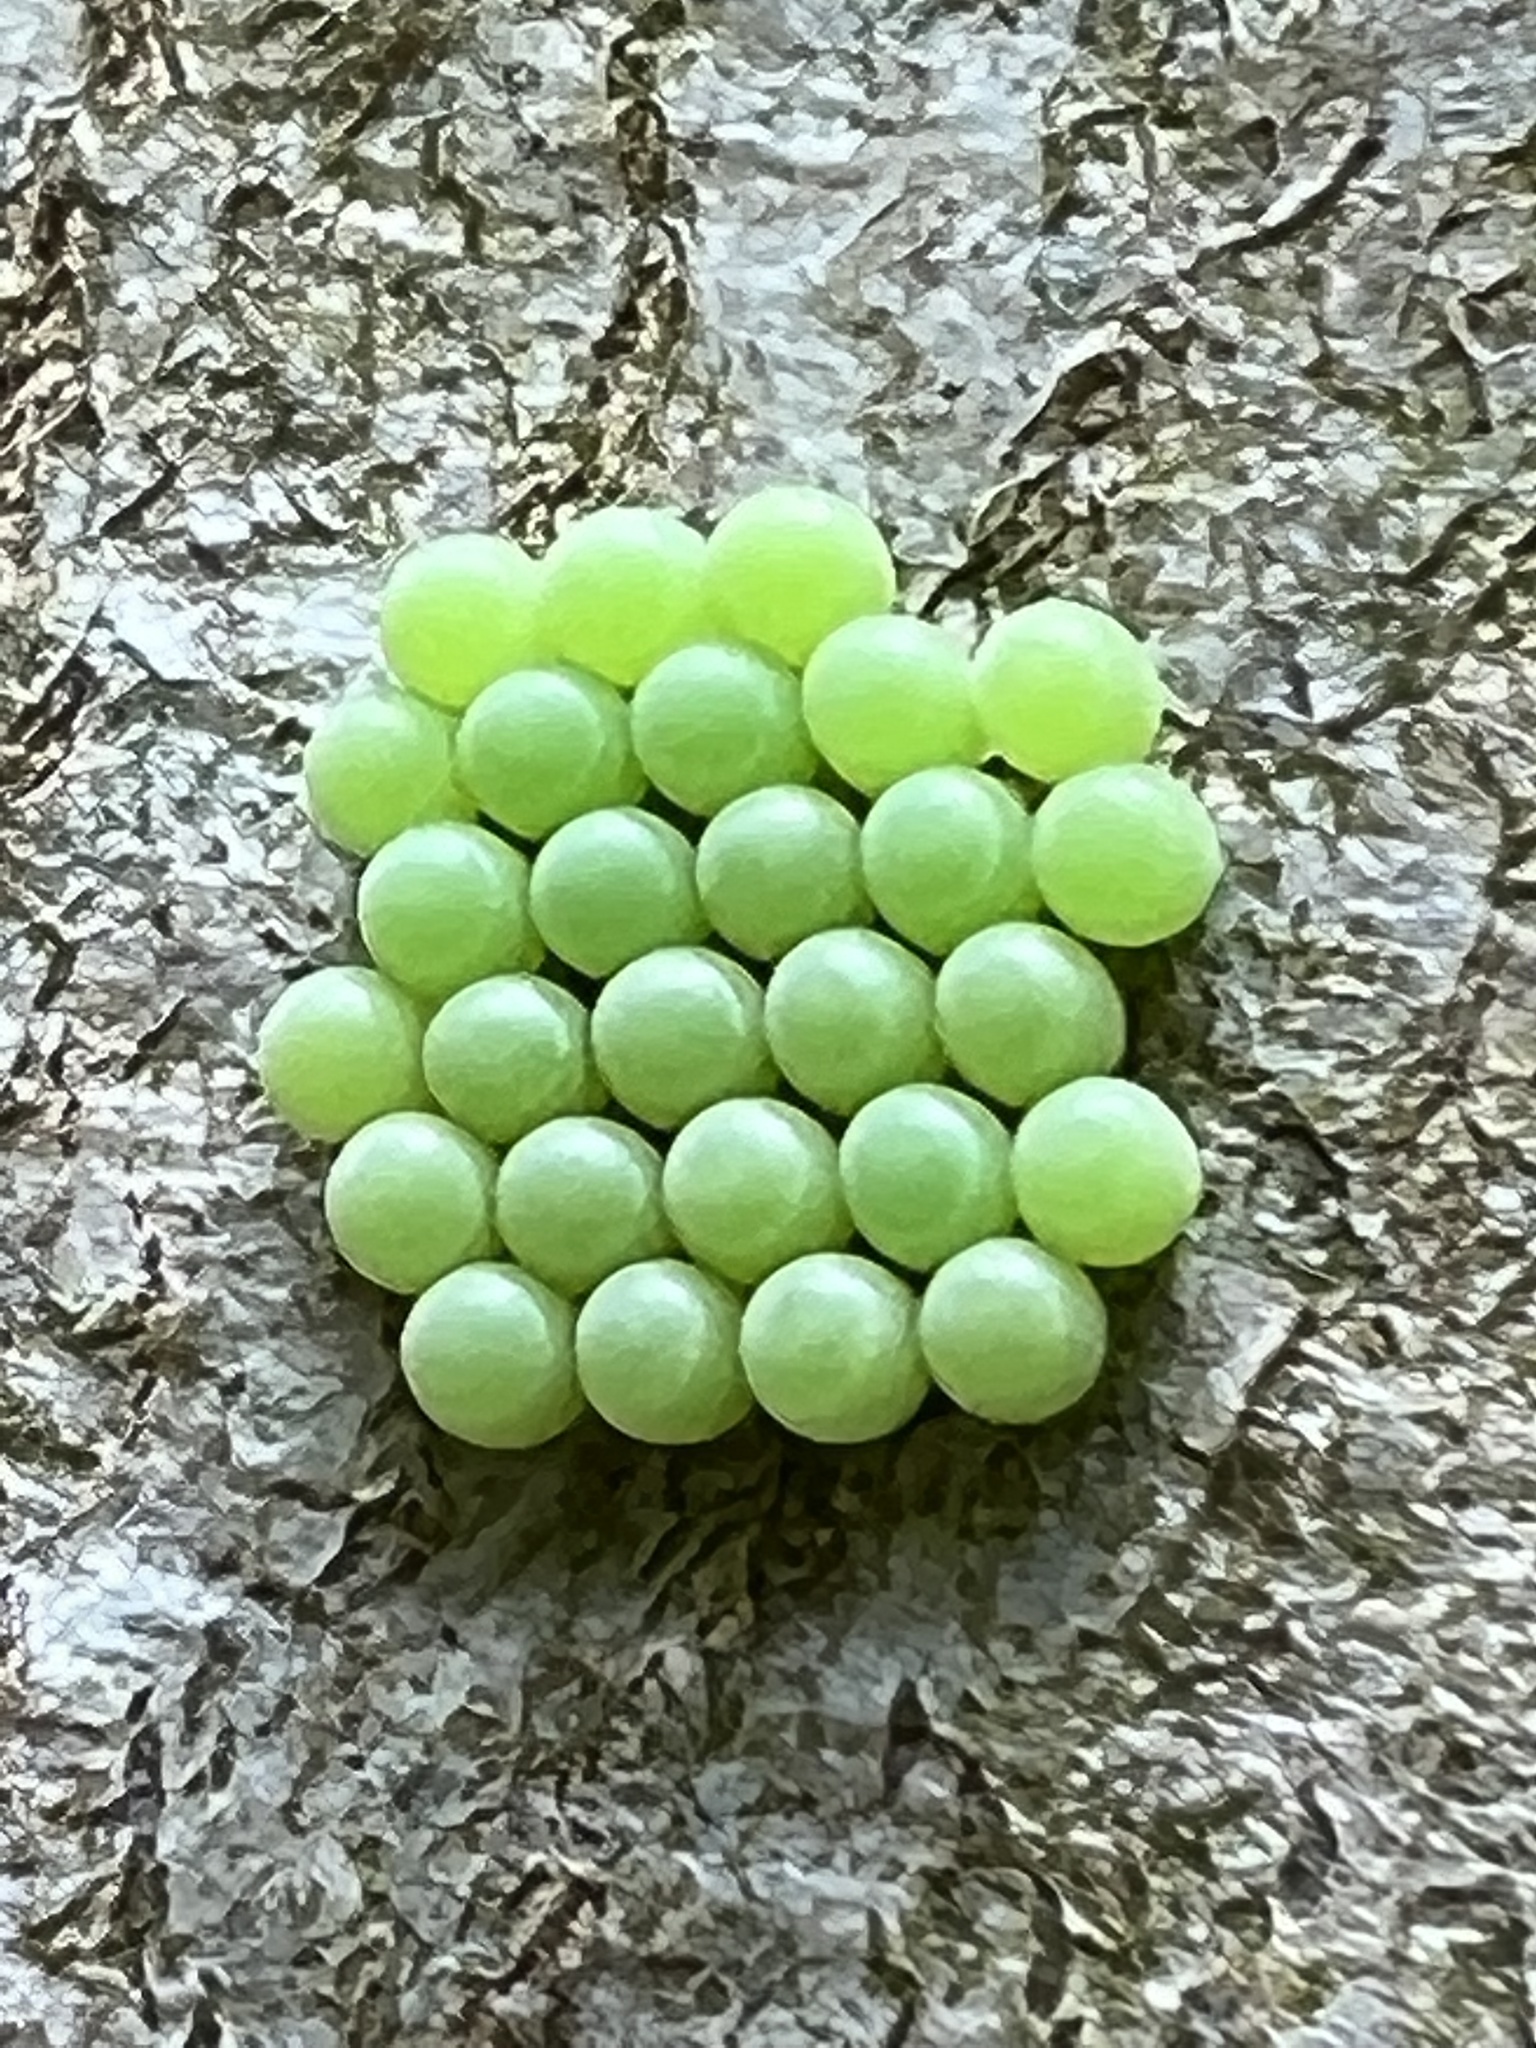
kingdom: Animalia
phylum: Arthropoda
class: Insecta
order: Hemiptera
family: Pentatomidae
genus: Palomena
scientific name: Palomena prasina
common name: Green shieldbug
